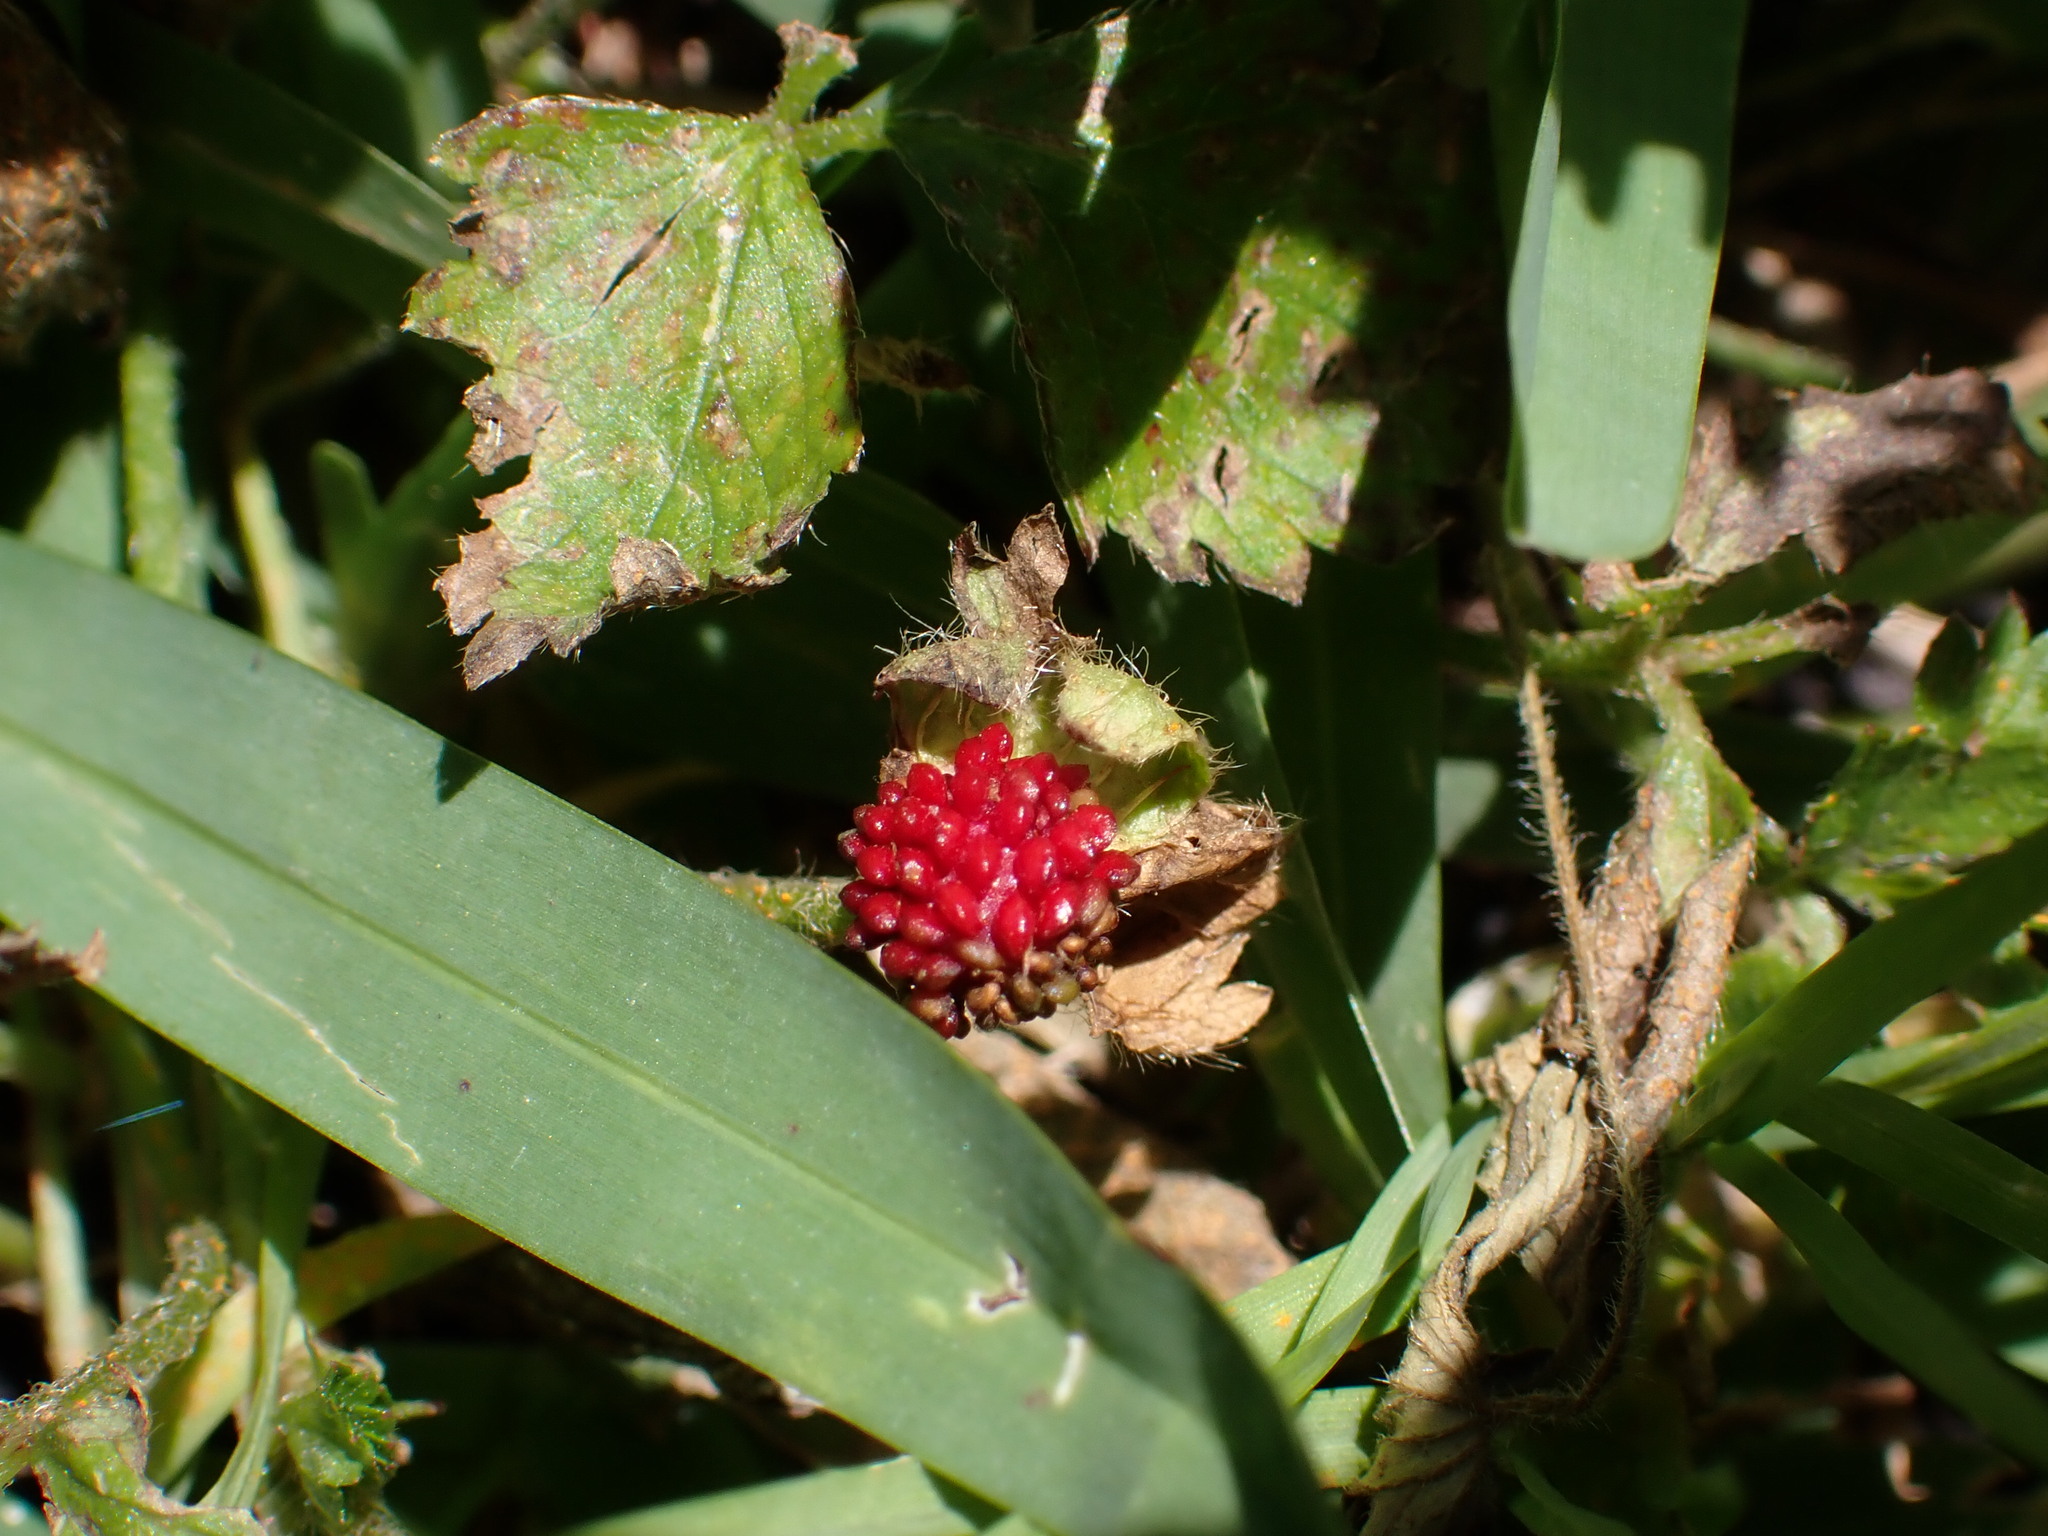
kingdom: Plantae
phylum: Tracheophyta
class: Magnoliopsida
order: Rosales
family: Rosaceae
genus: Potentilla
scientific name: Potentilla indica
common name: Yellow-flowered strawberry
